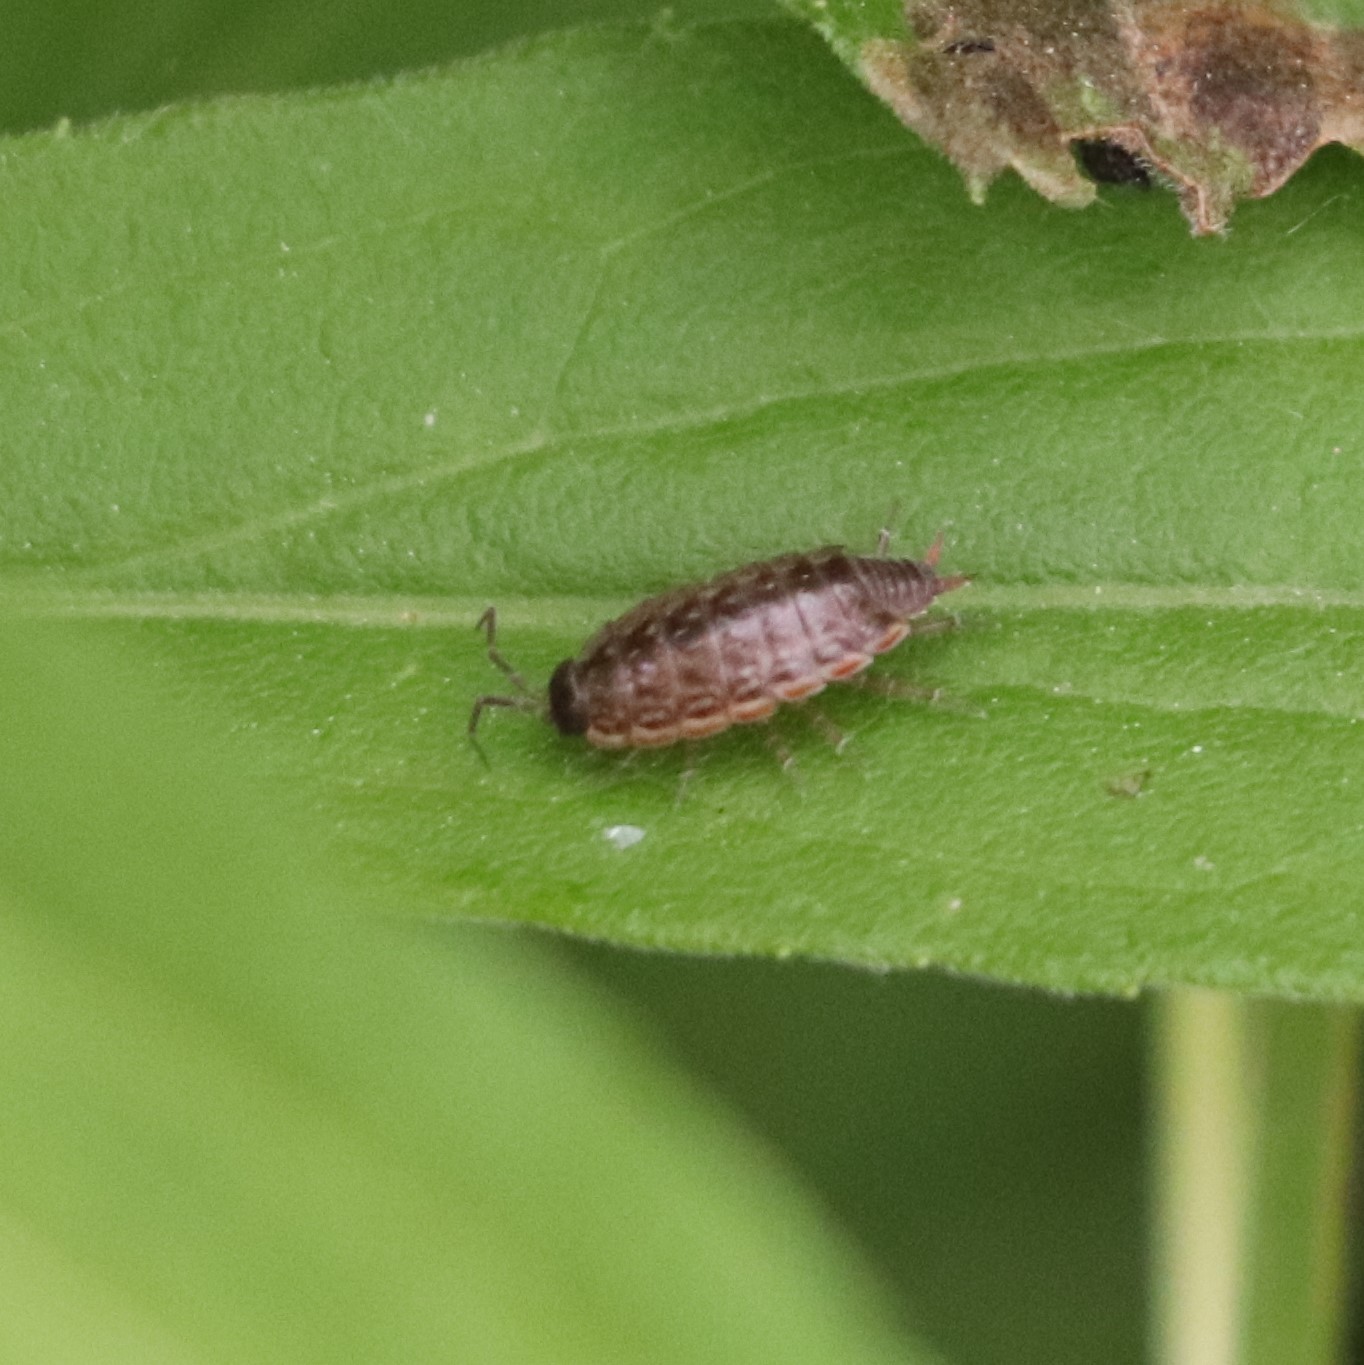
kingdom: Animalia
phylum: Arthropoda
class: Malacostraca
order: Isopoda
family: Philosciidae
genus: Philoscia
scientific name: Philoscia muscorum
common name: Common striped woodlouse
